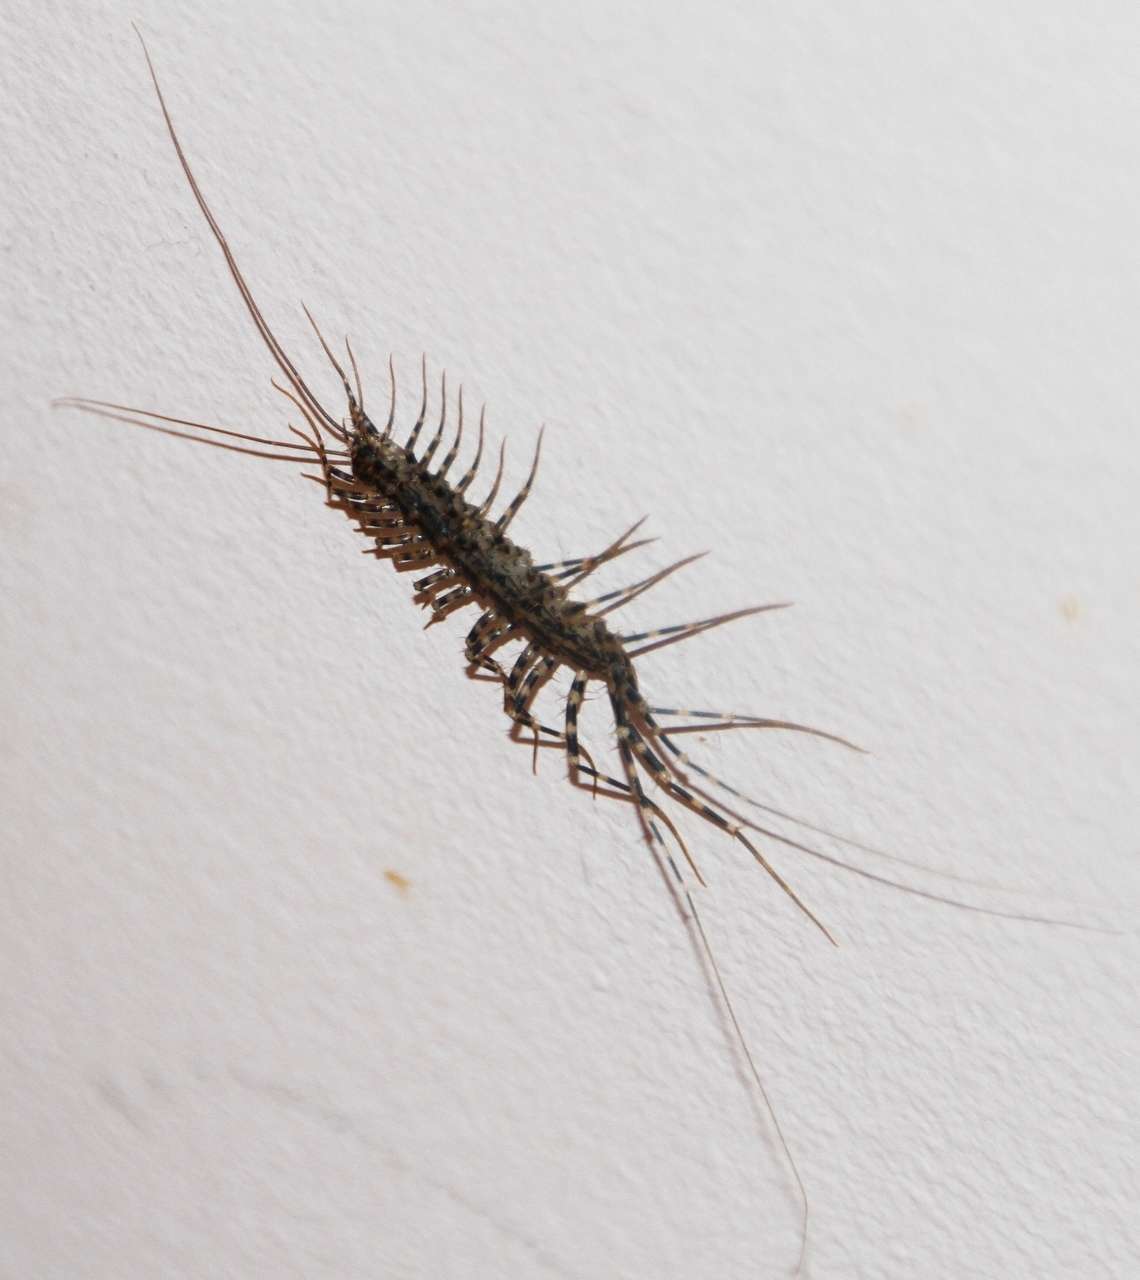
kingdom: Animalia
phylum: Arthropoda
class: Chilopoda
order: Scutigeromorpha
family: Scutigeridae
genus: Allothereua
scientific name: Allothereua maculata
